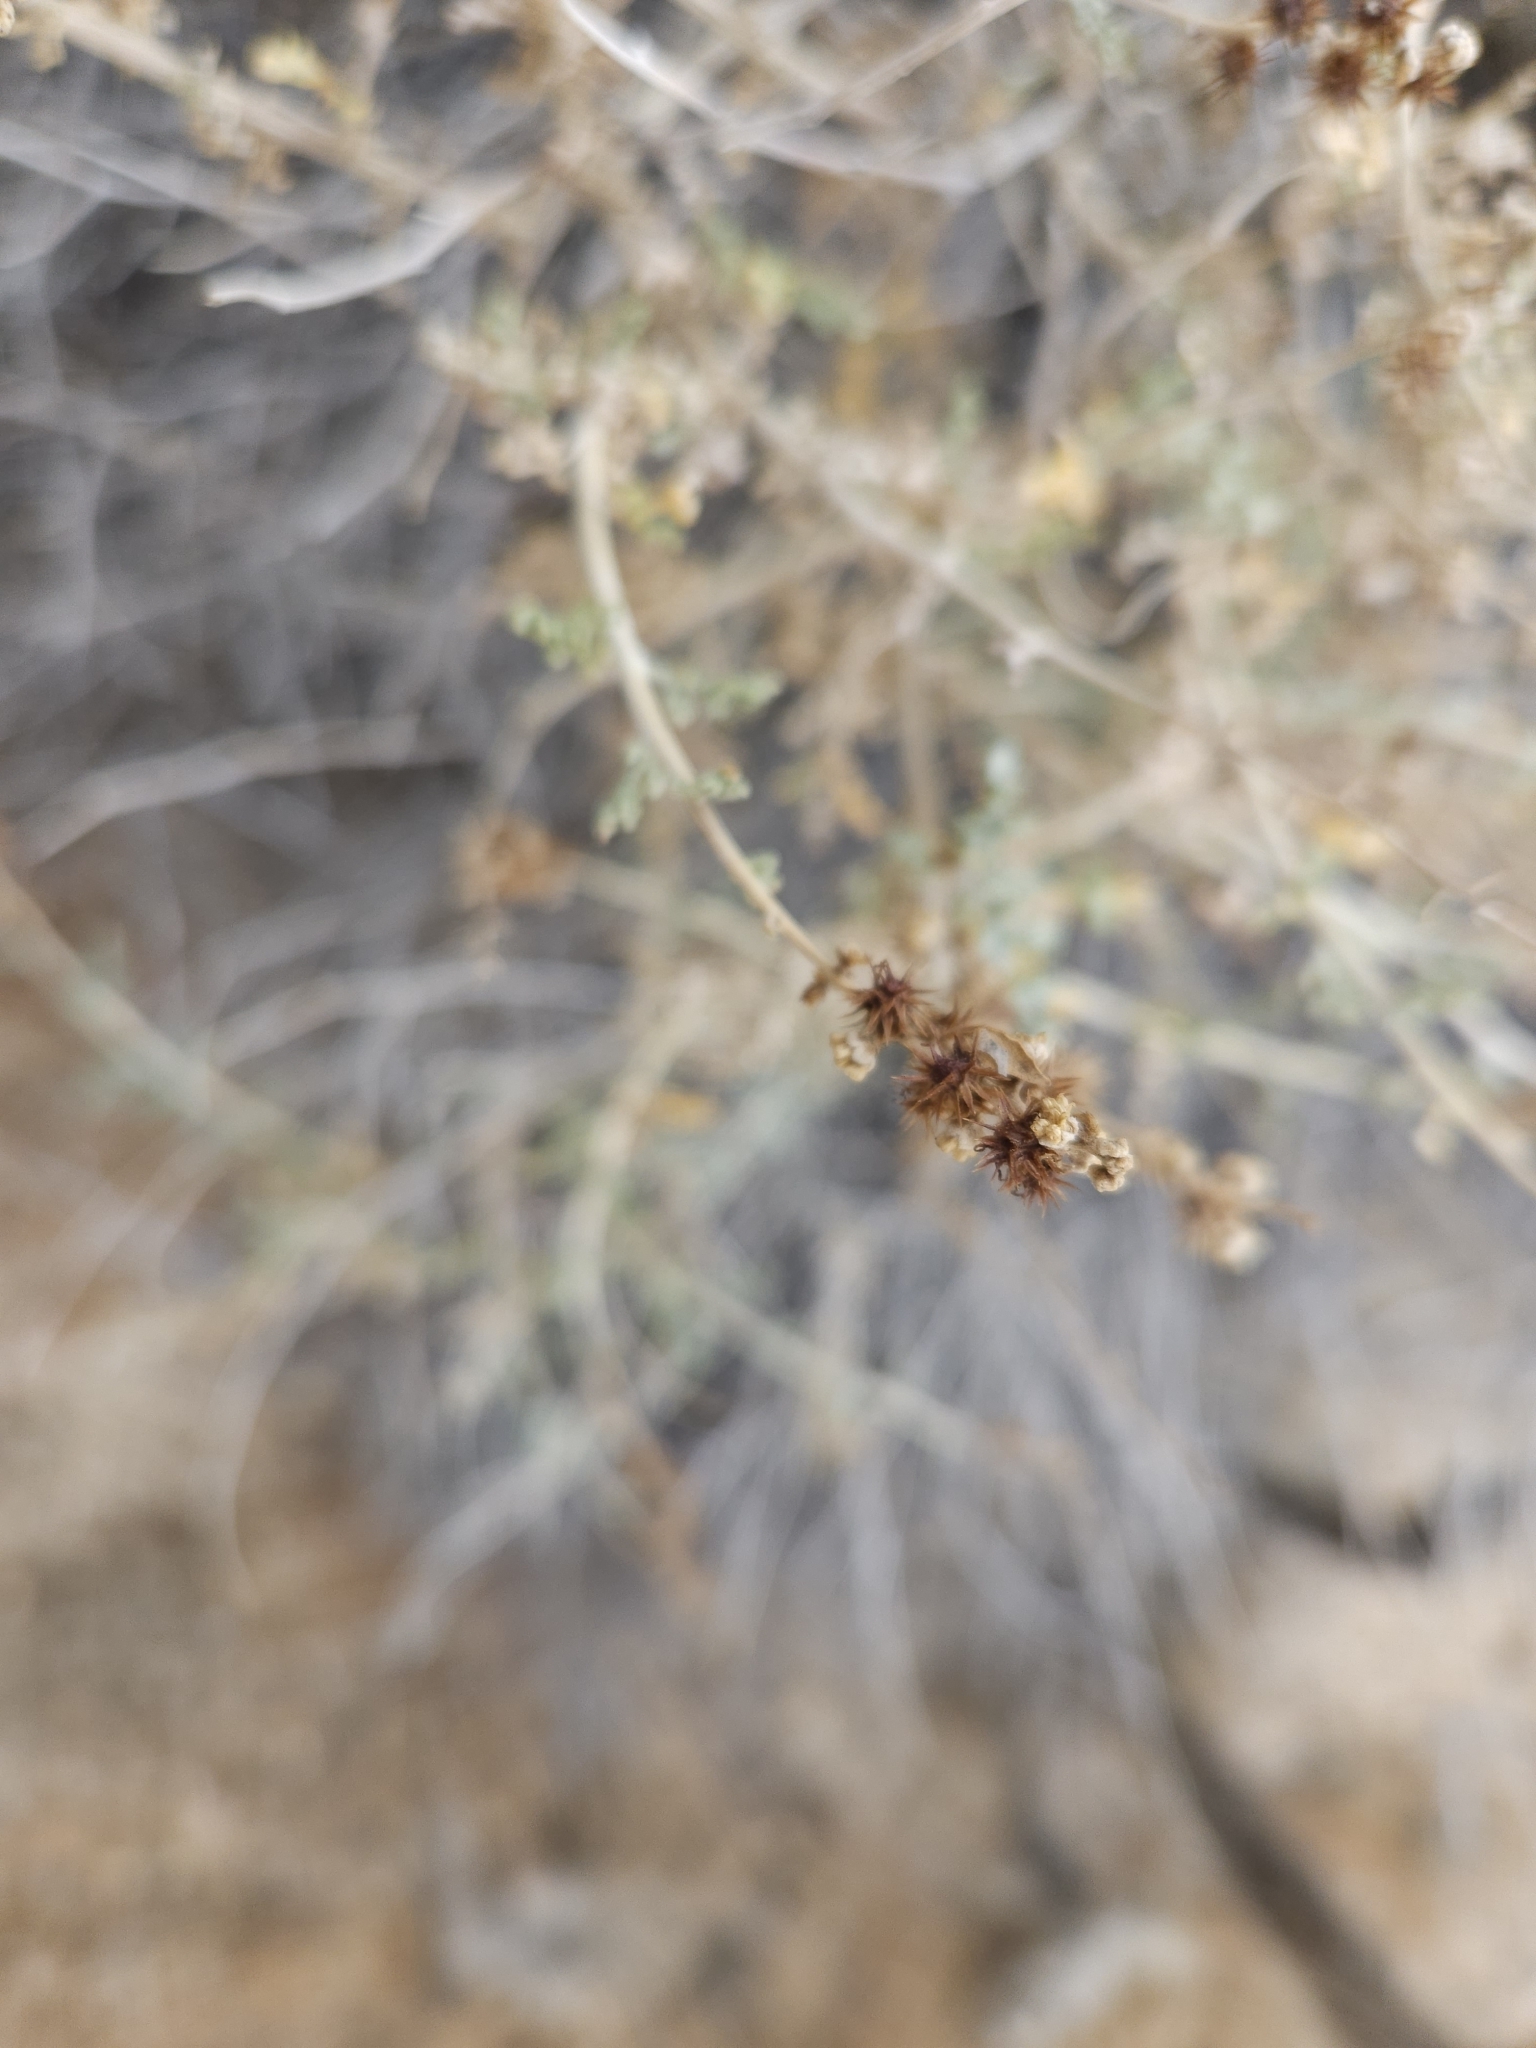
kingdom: Plantae
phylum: Tracheophyta
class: Magnoliopsida
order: Asterales
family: Asteraceae
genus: Ambrosia
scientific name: Ambrosia dumosa
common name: Bur-sage
